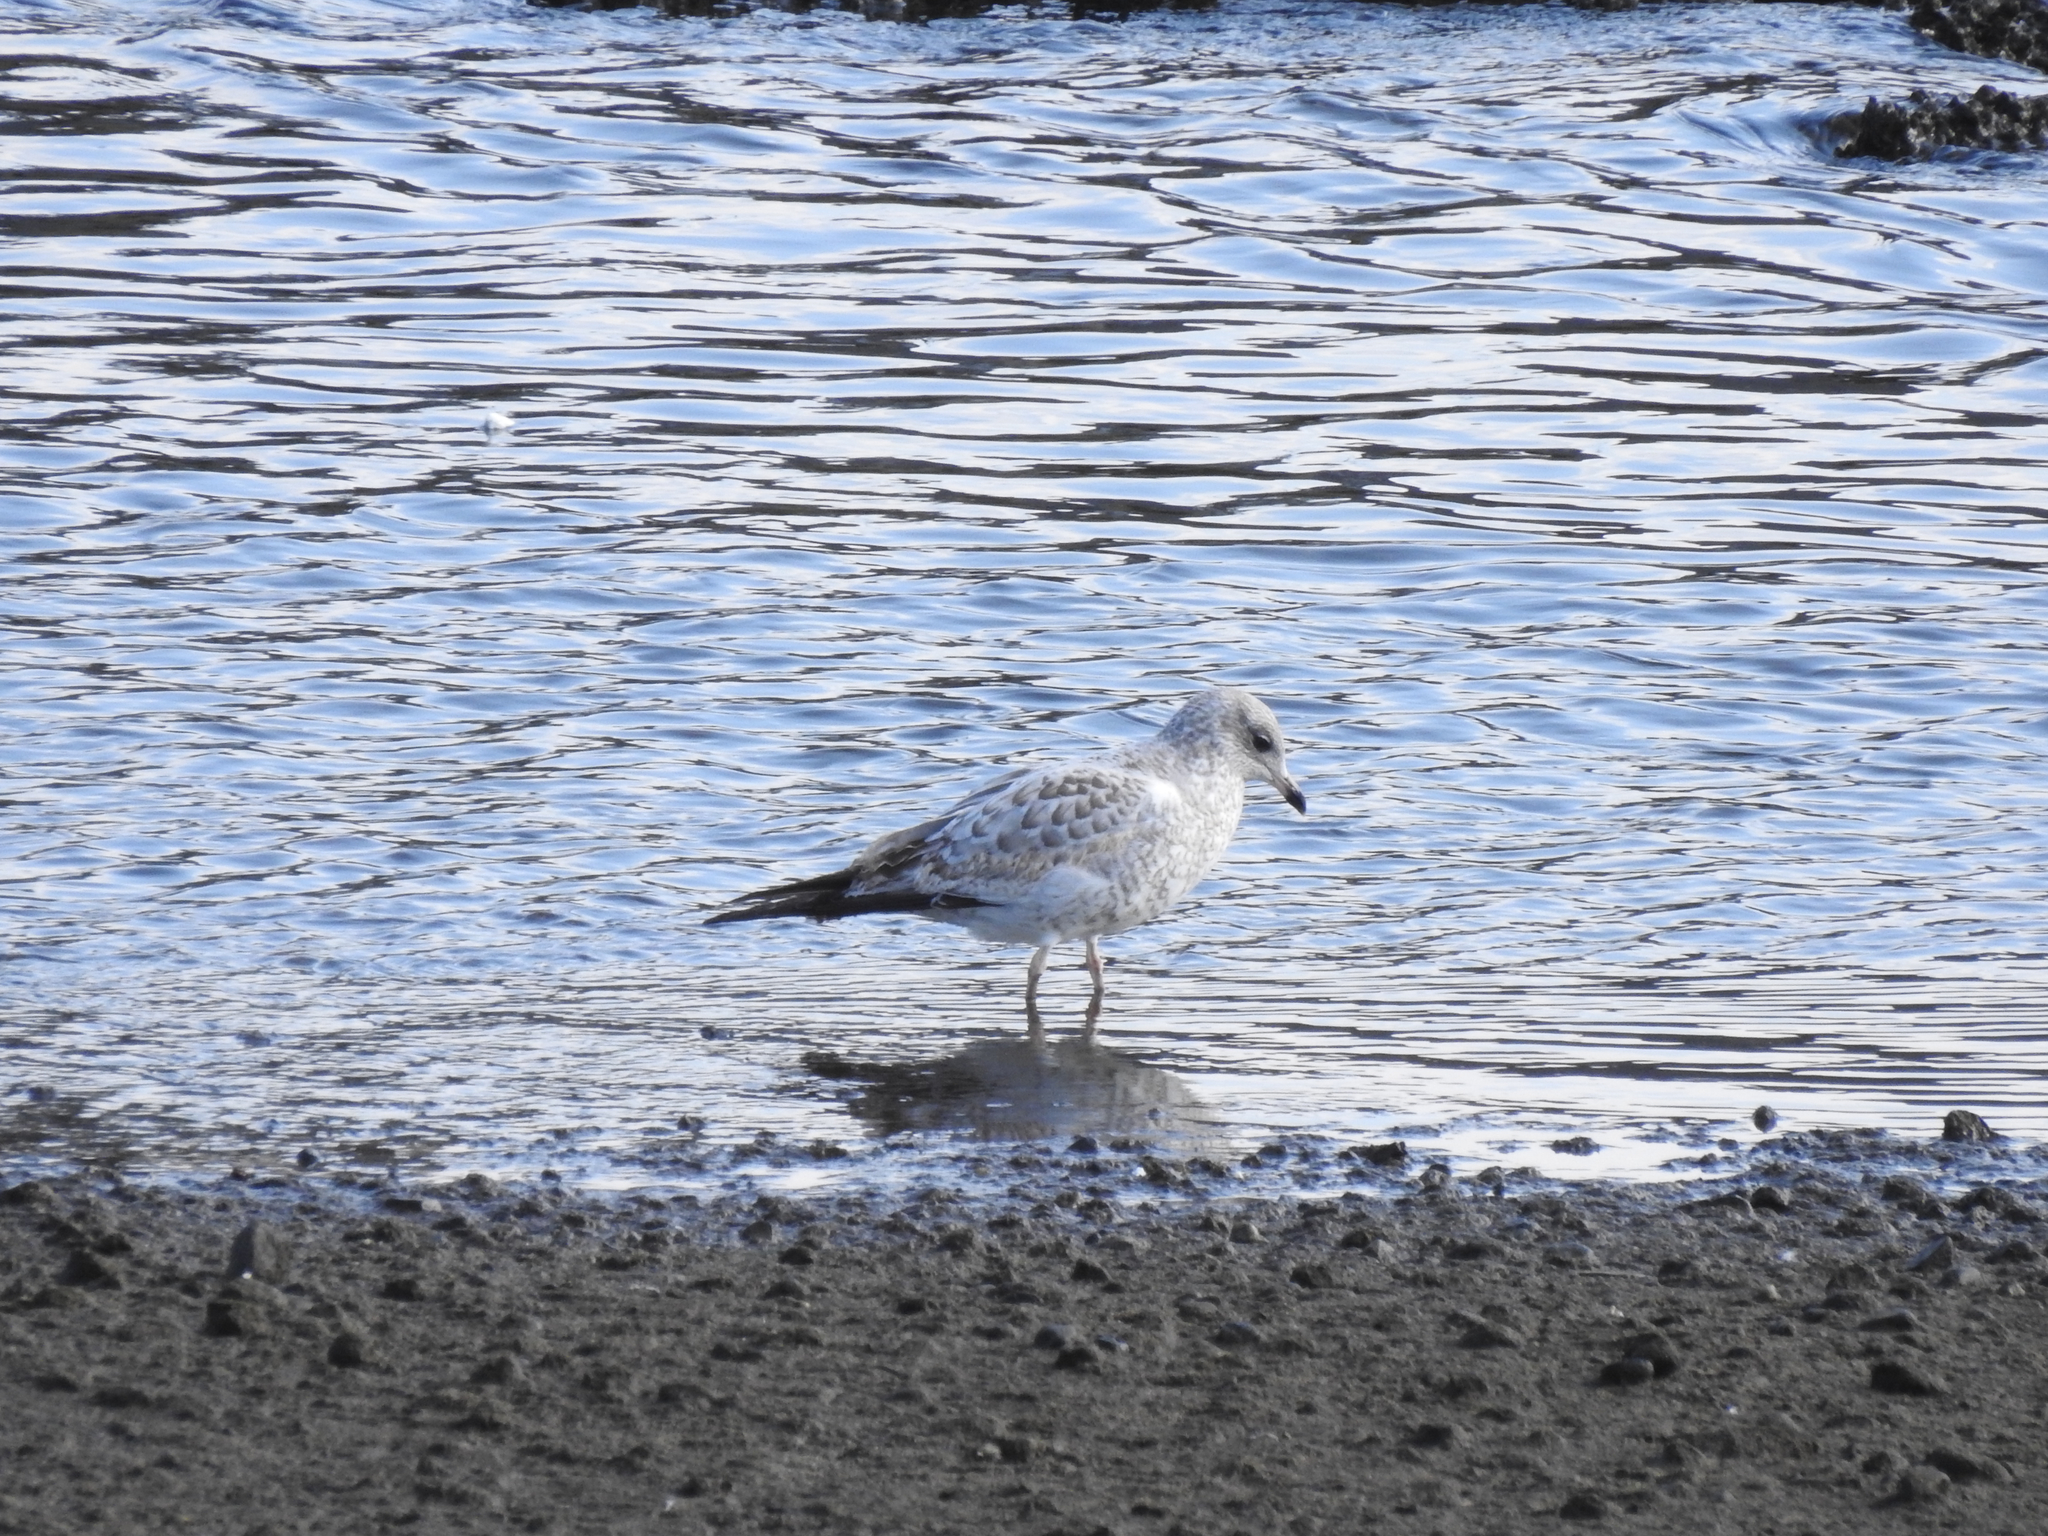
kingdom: Animalia
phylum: Chordata
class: Aves
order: Charadriiformes
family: Laridae
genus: Larus
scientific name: Larus delawarensis
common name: Ring-billed gull
